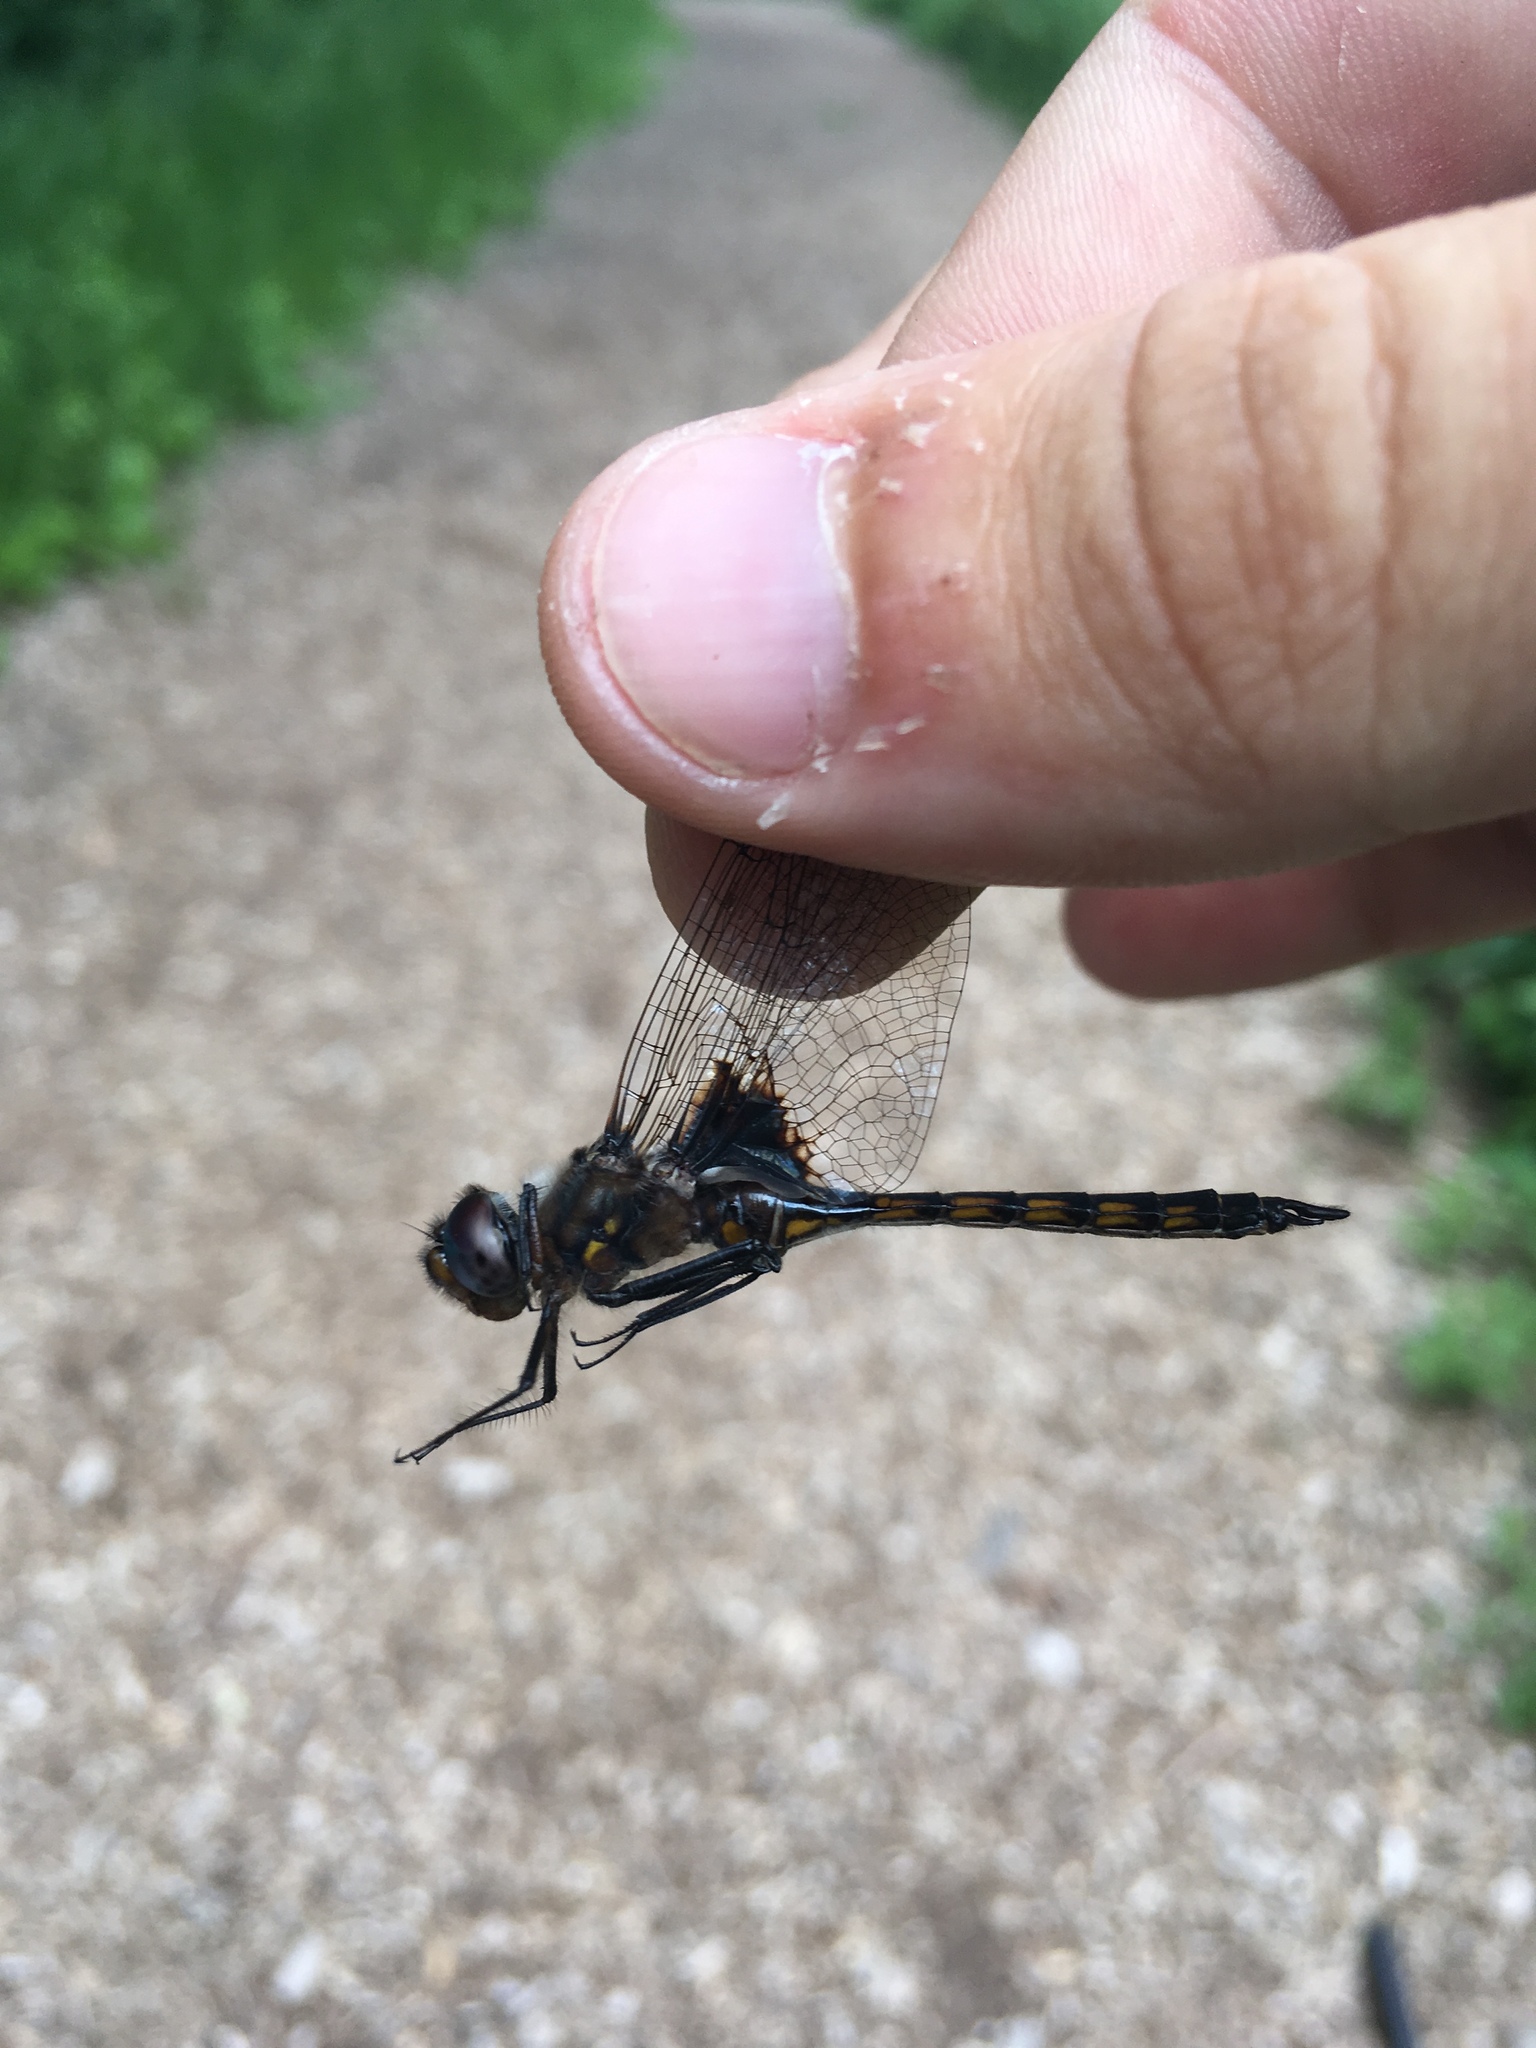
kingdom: Animalia
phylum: Arthropoda
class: Insecta
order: Odonata
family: Corduliidae
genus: Epitheca
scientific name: Epitheca cynosura
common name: Common baskettail
